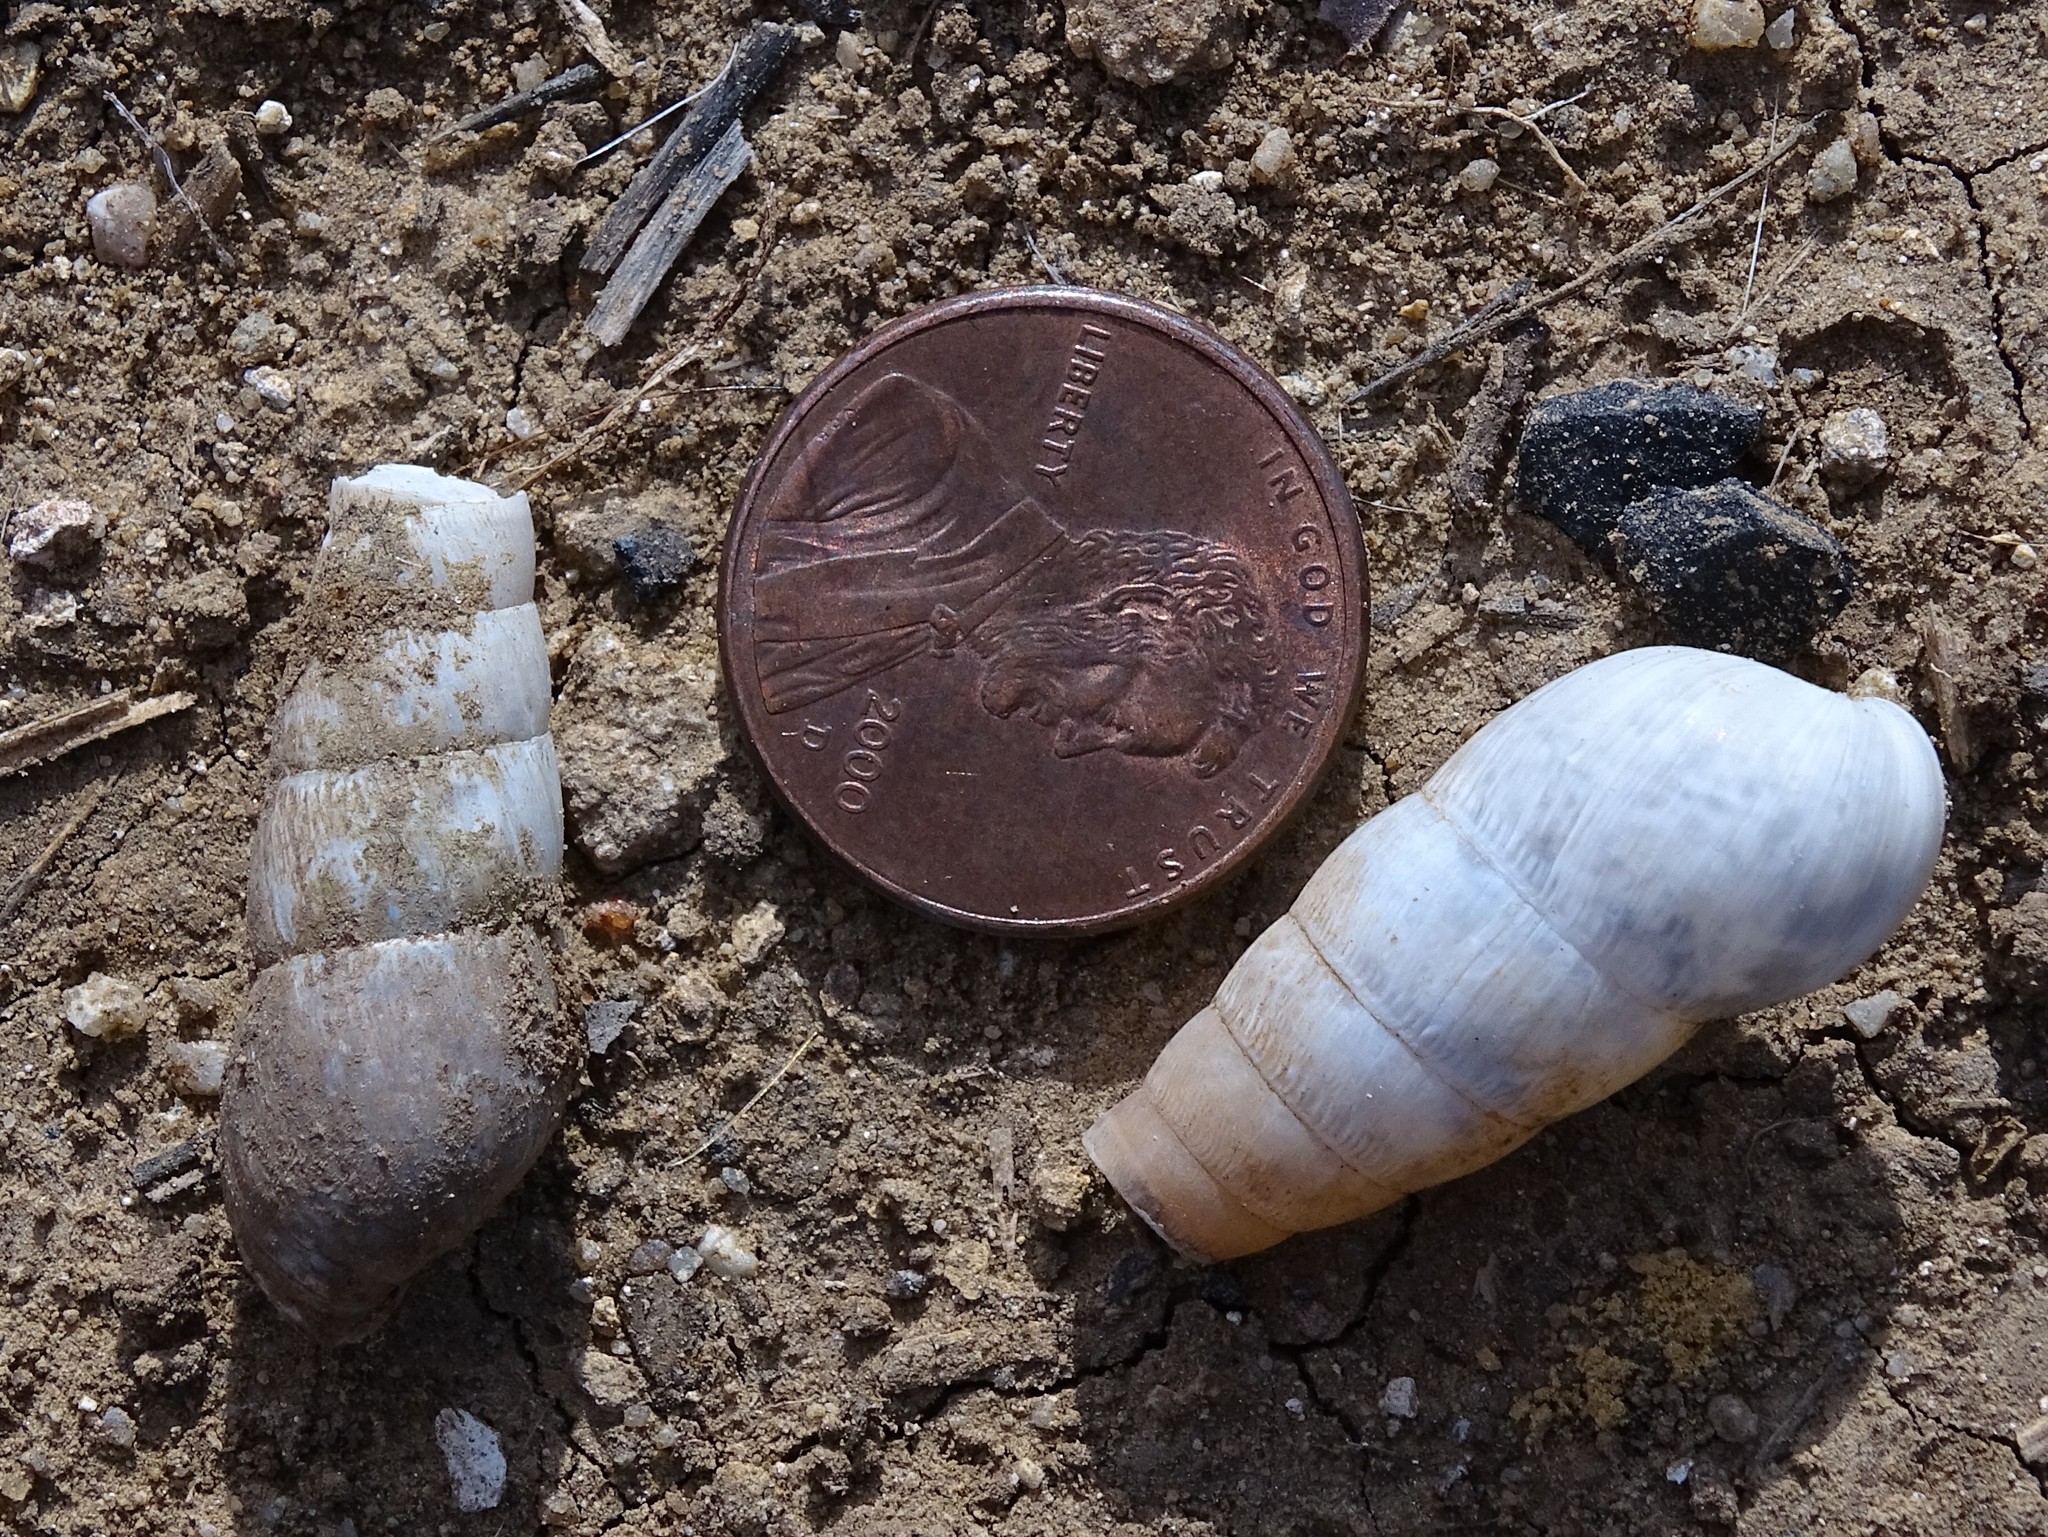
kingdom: Animalia
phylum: Mollusca
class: Gastropoda
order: Stylommatophora
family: Achatinidae
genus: Rumina
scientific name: Rumina decollata
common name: Decollate snail
